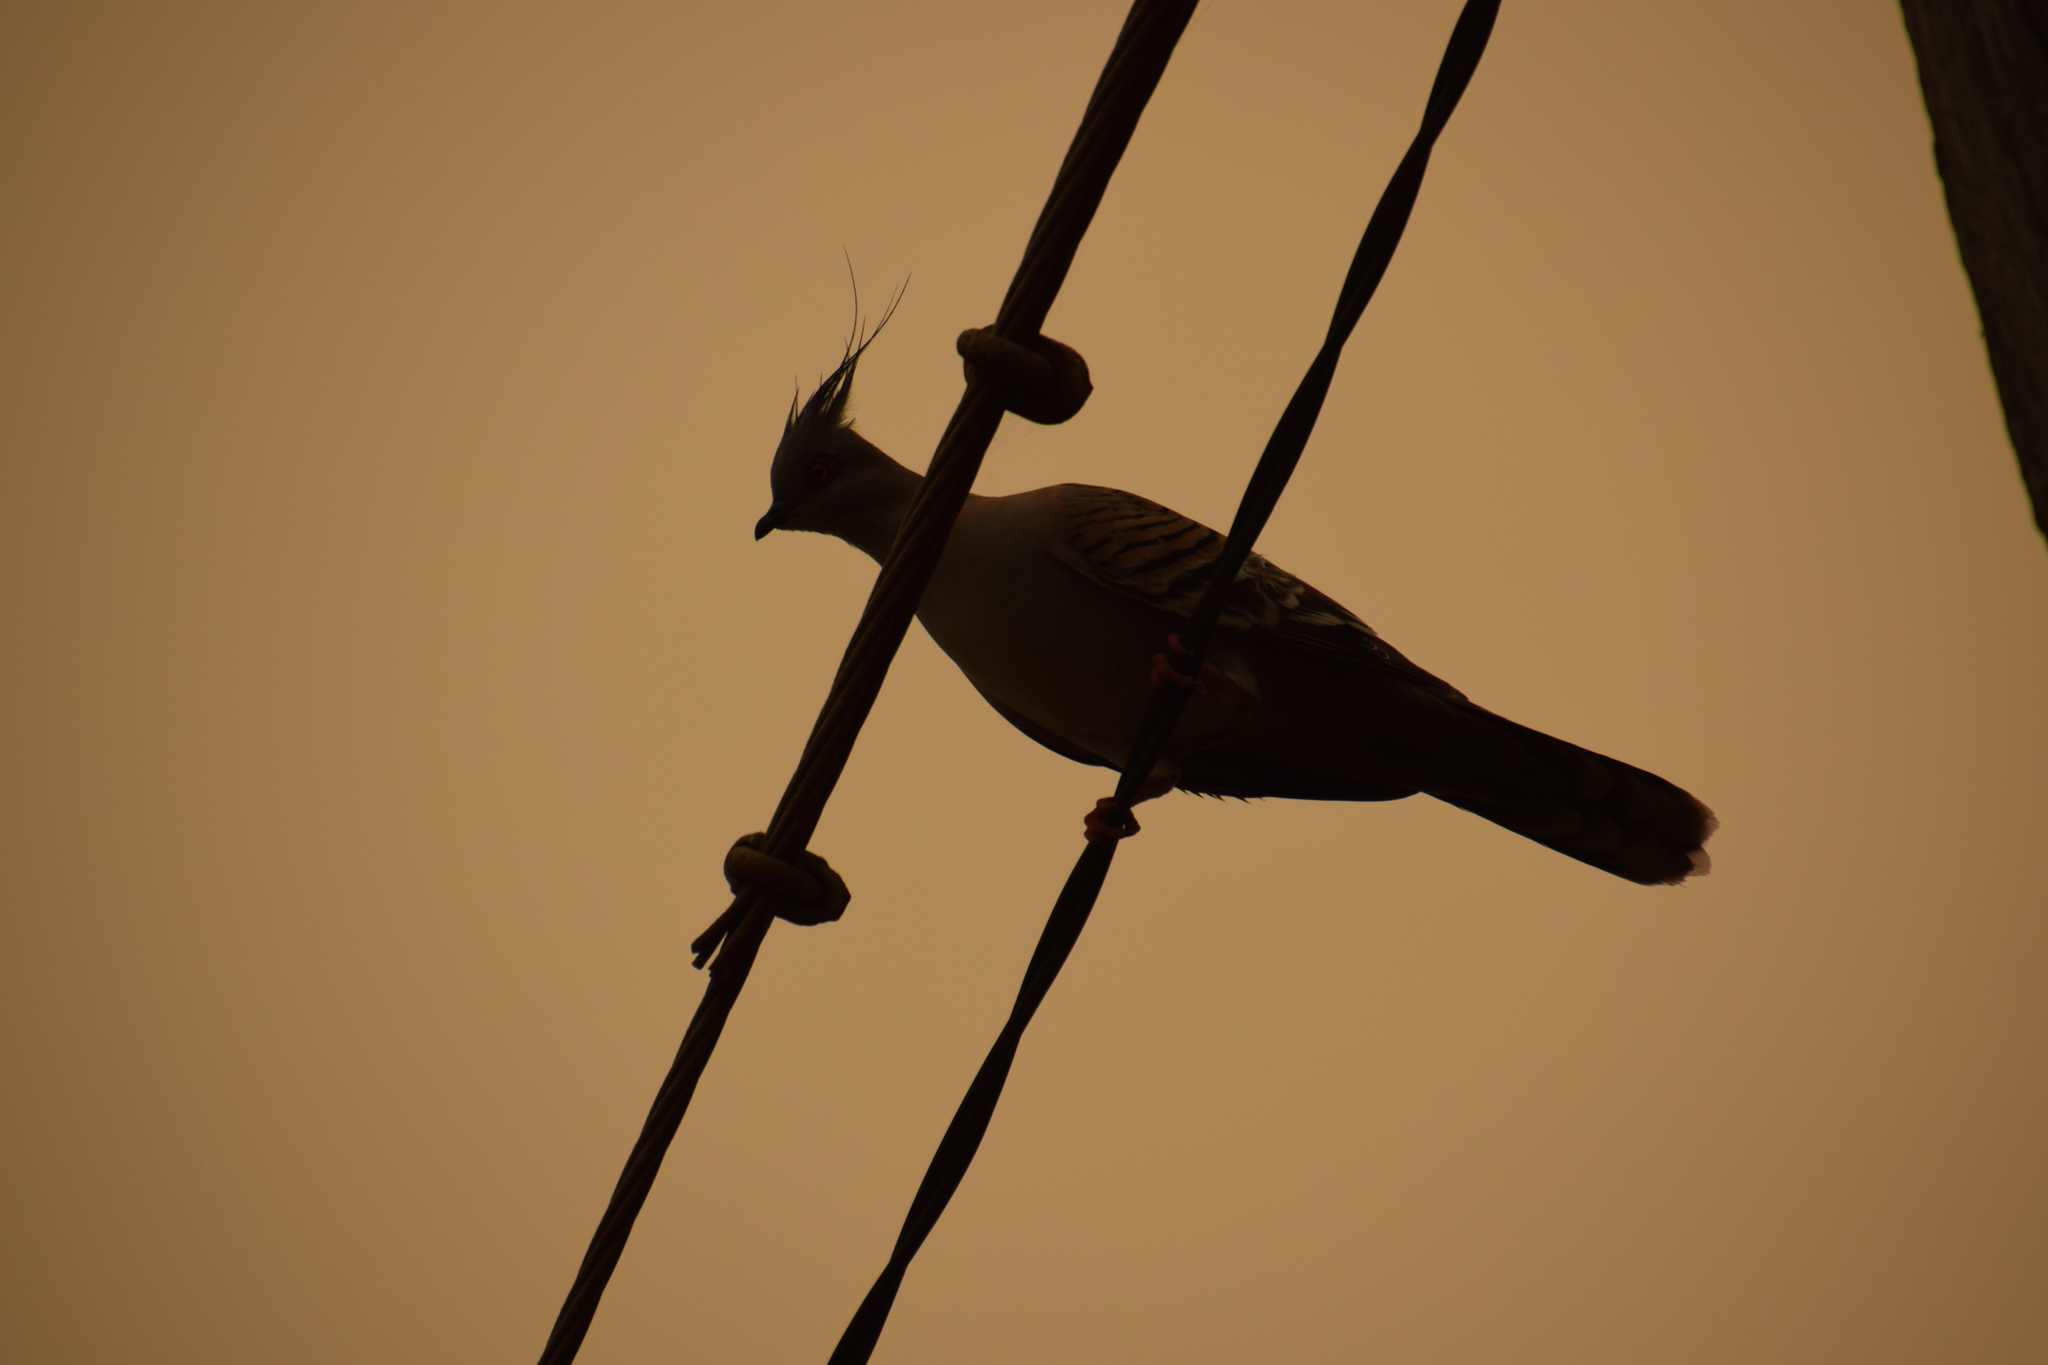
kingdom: Animalia
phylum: Chordata
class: Aves
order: Columbiformes
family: Columbidae
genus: Ocyphaps
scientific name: Ocyphaps lophotes
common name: Crested pigeon
